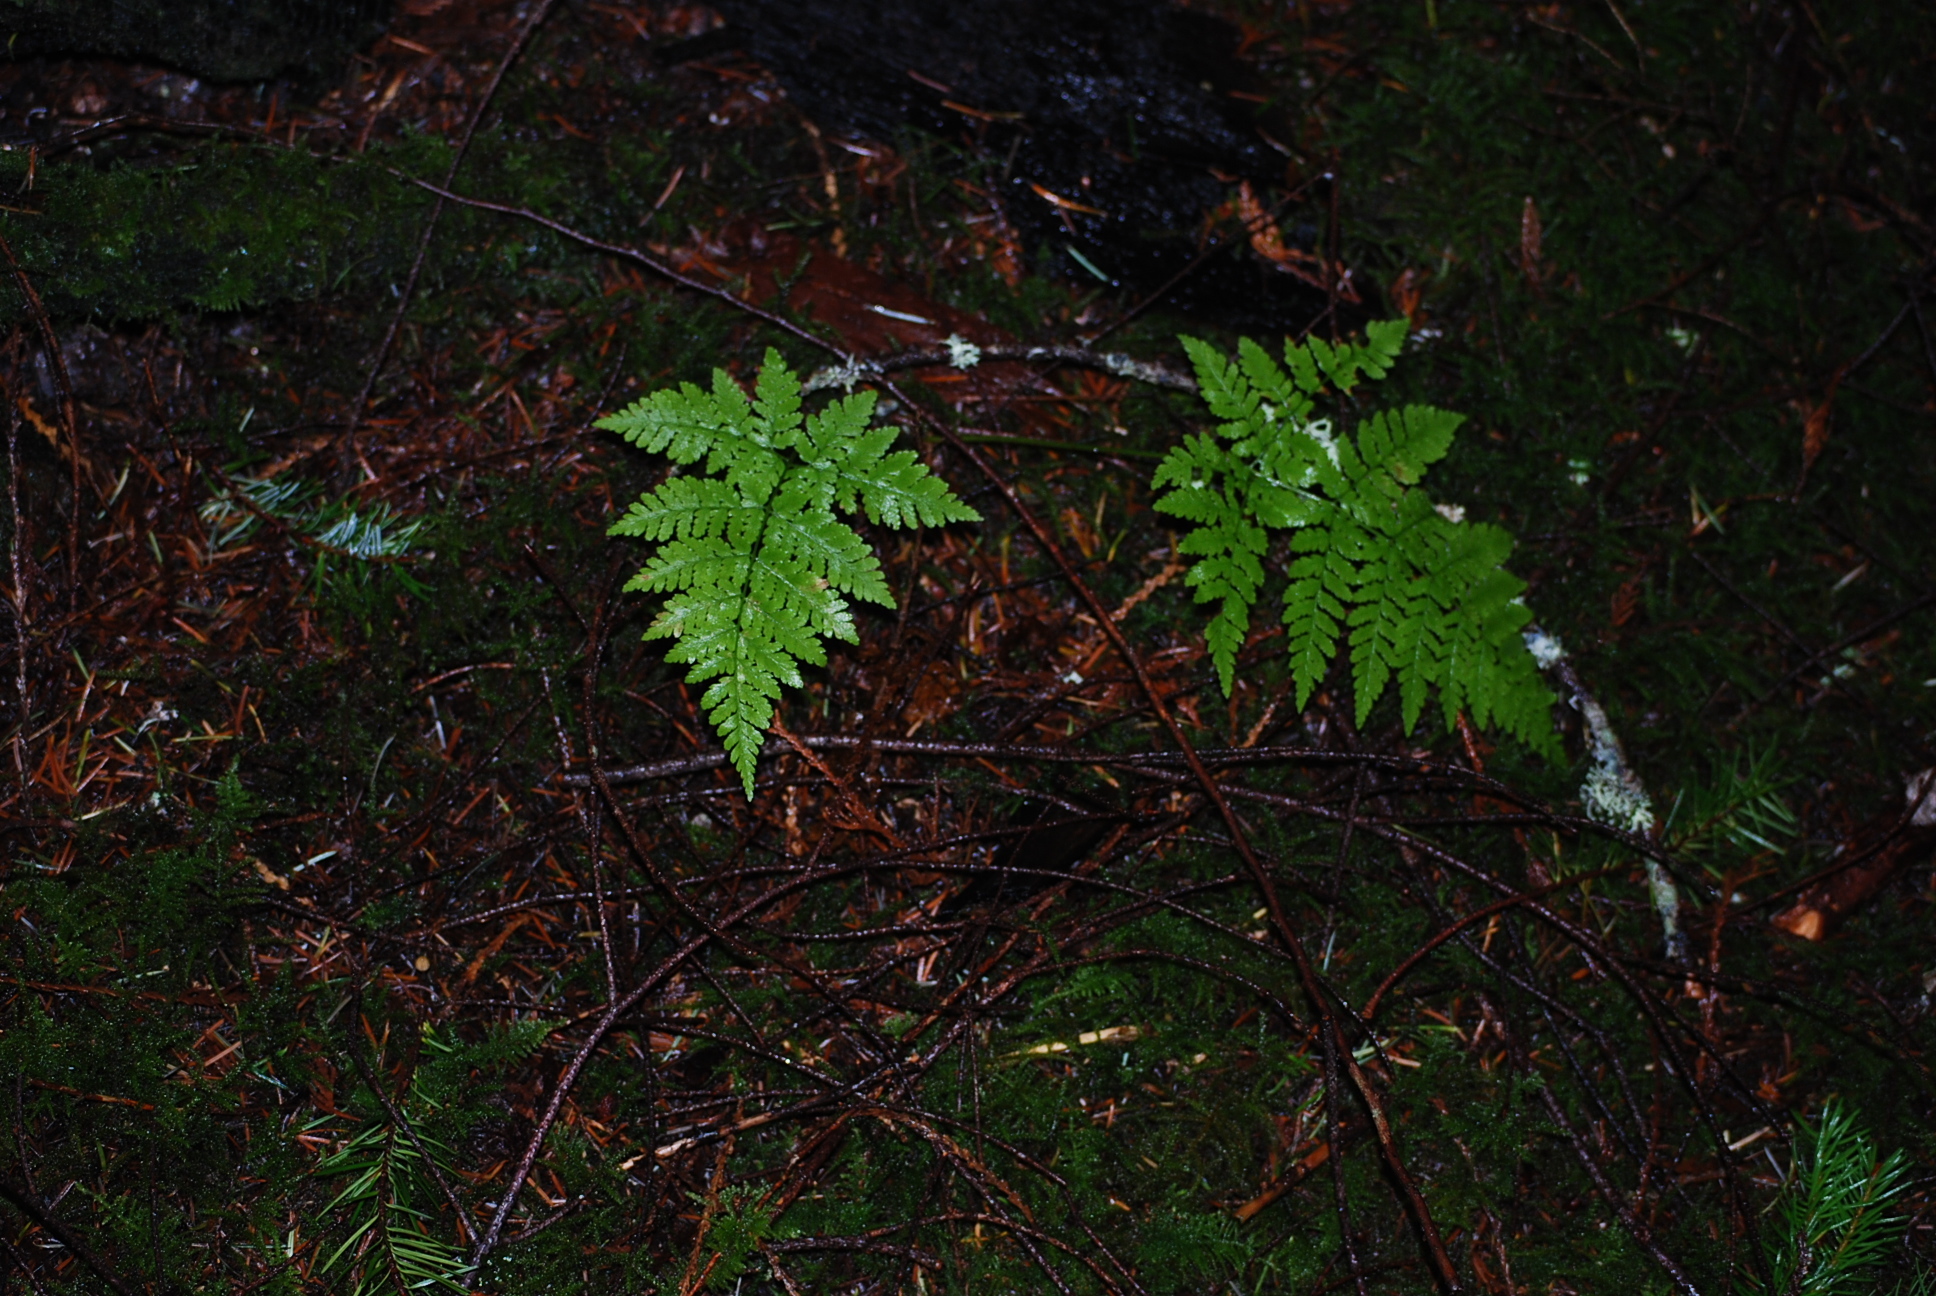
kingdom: Plantae
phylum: Tracheophyta
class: Polypodiopsida
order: Polypodiales
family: Dryopteridaceae
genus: Dryopteris
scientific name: Dryopteris expansa
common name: Northern buckler fern
